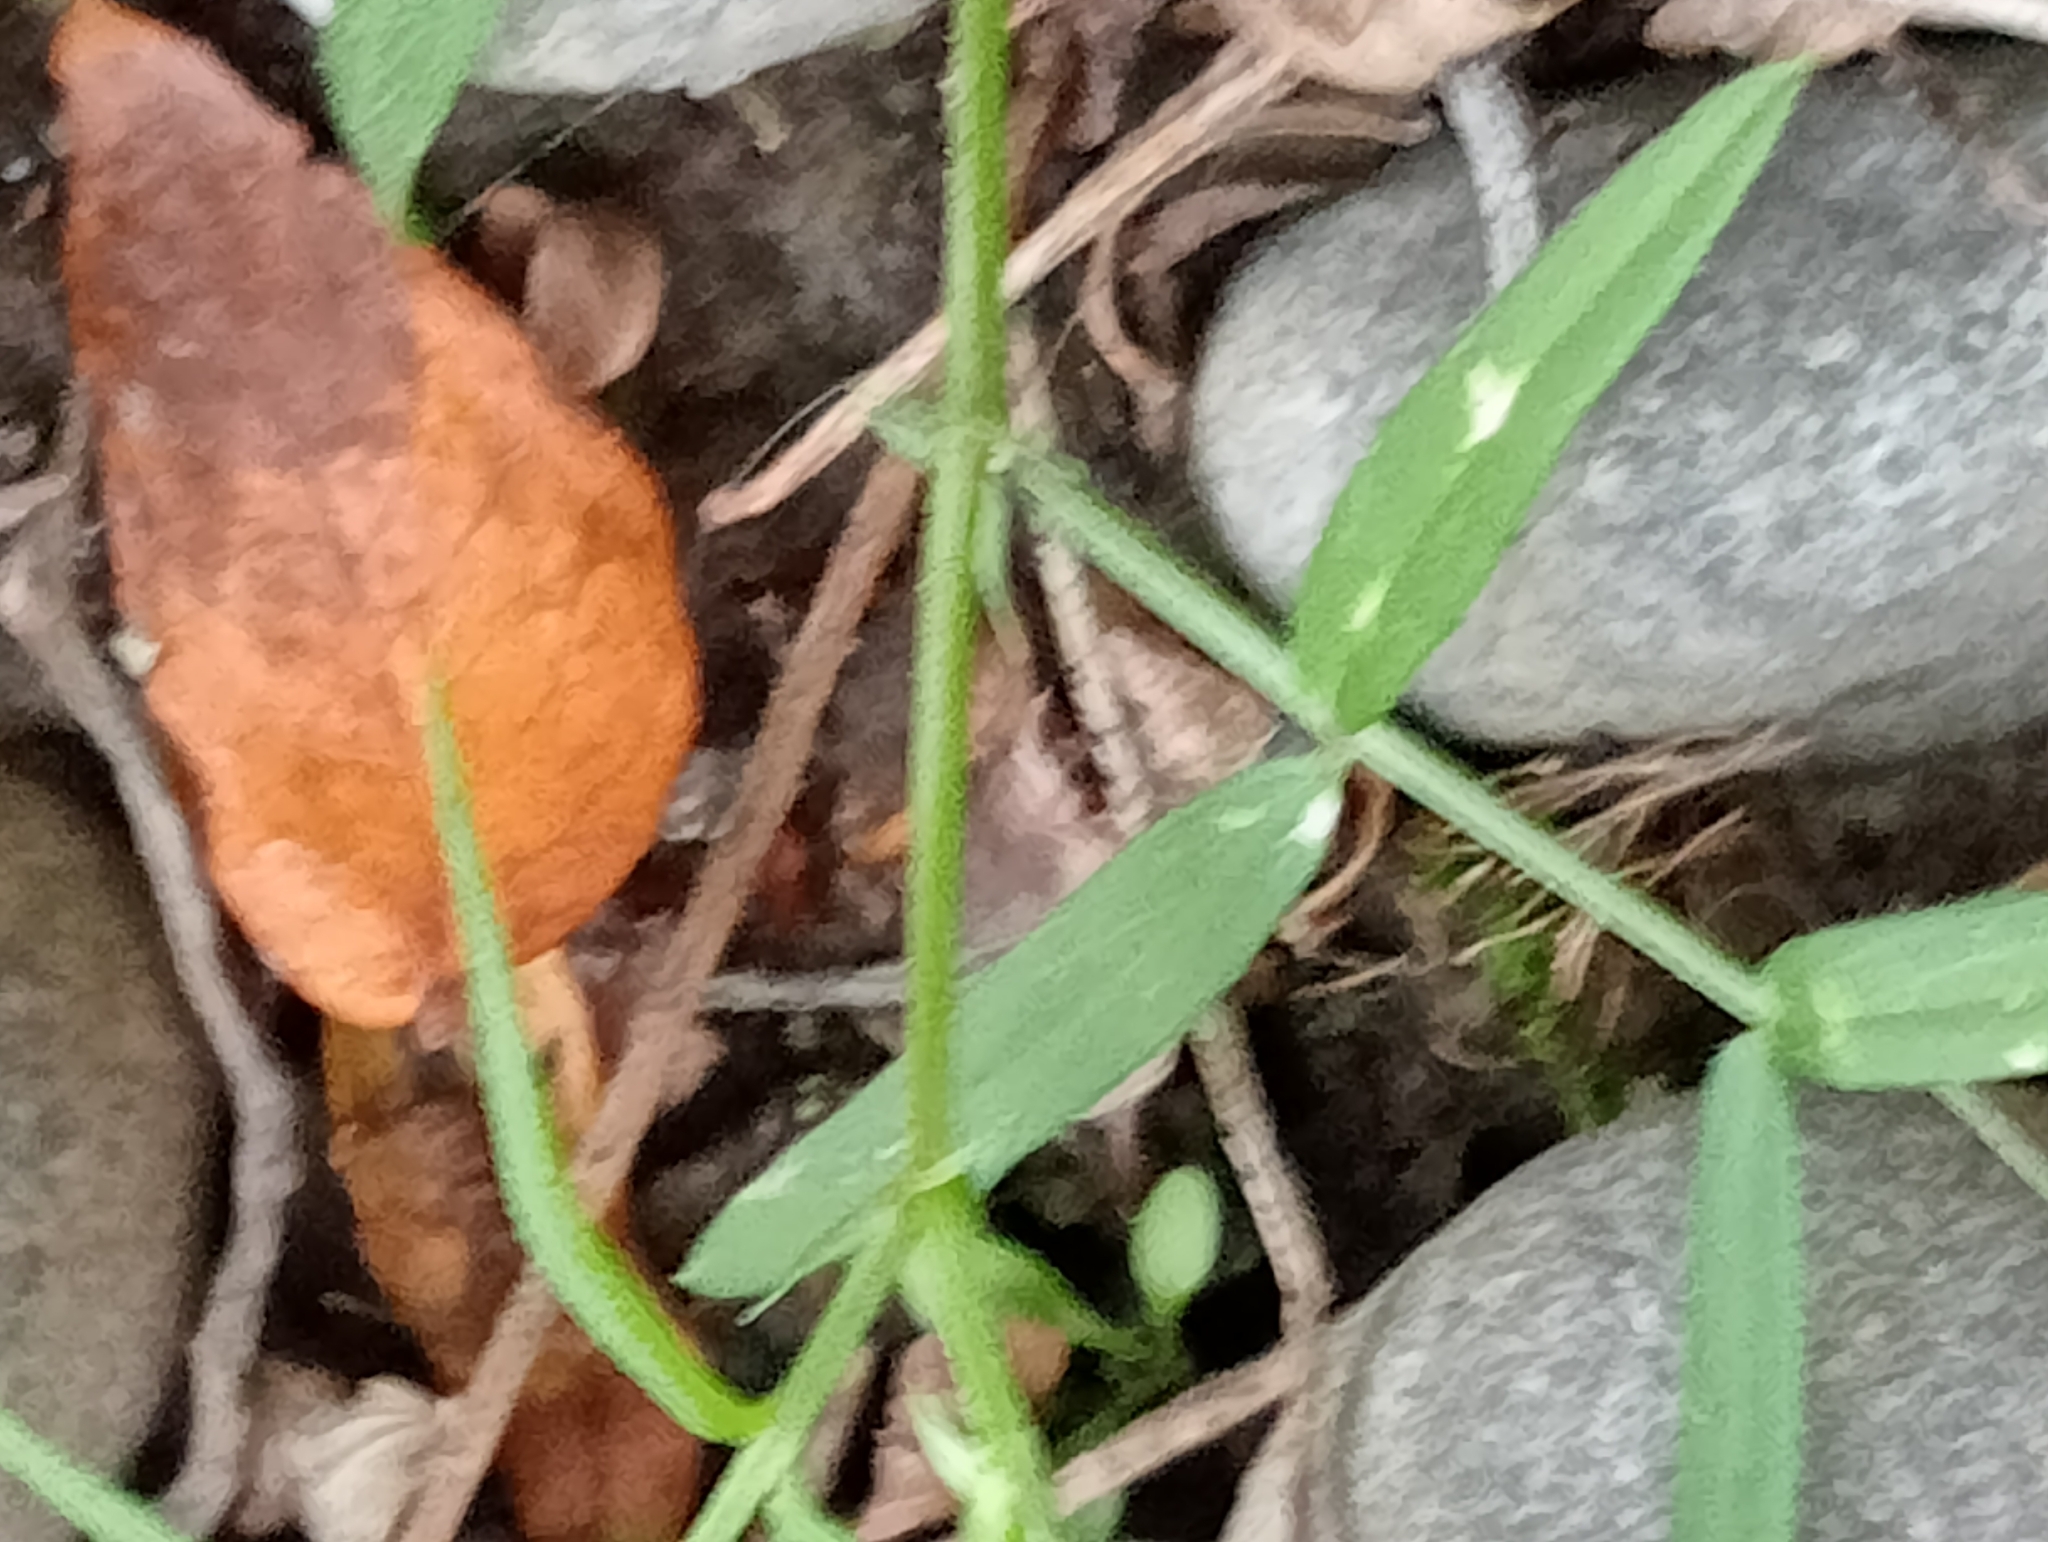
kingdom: Plantae
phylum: Tracheophyta
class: Magnoliopsida
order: Fabales
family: Fabaceae
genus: Vicia
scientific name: Vicia sativa
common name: Garden vetch
